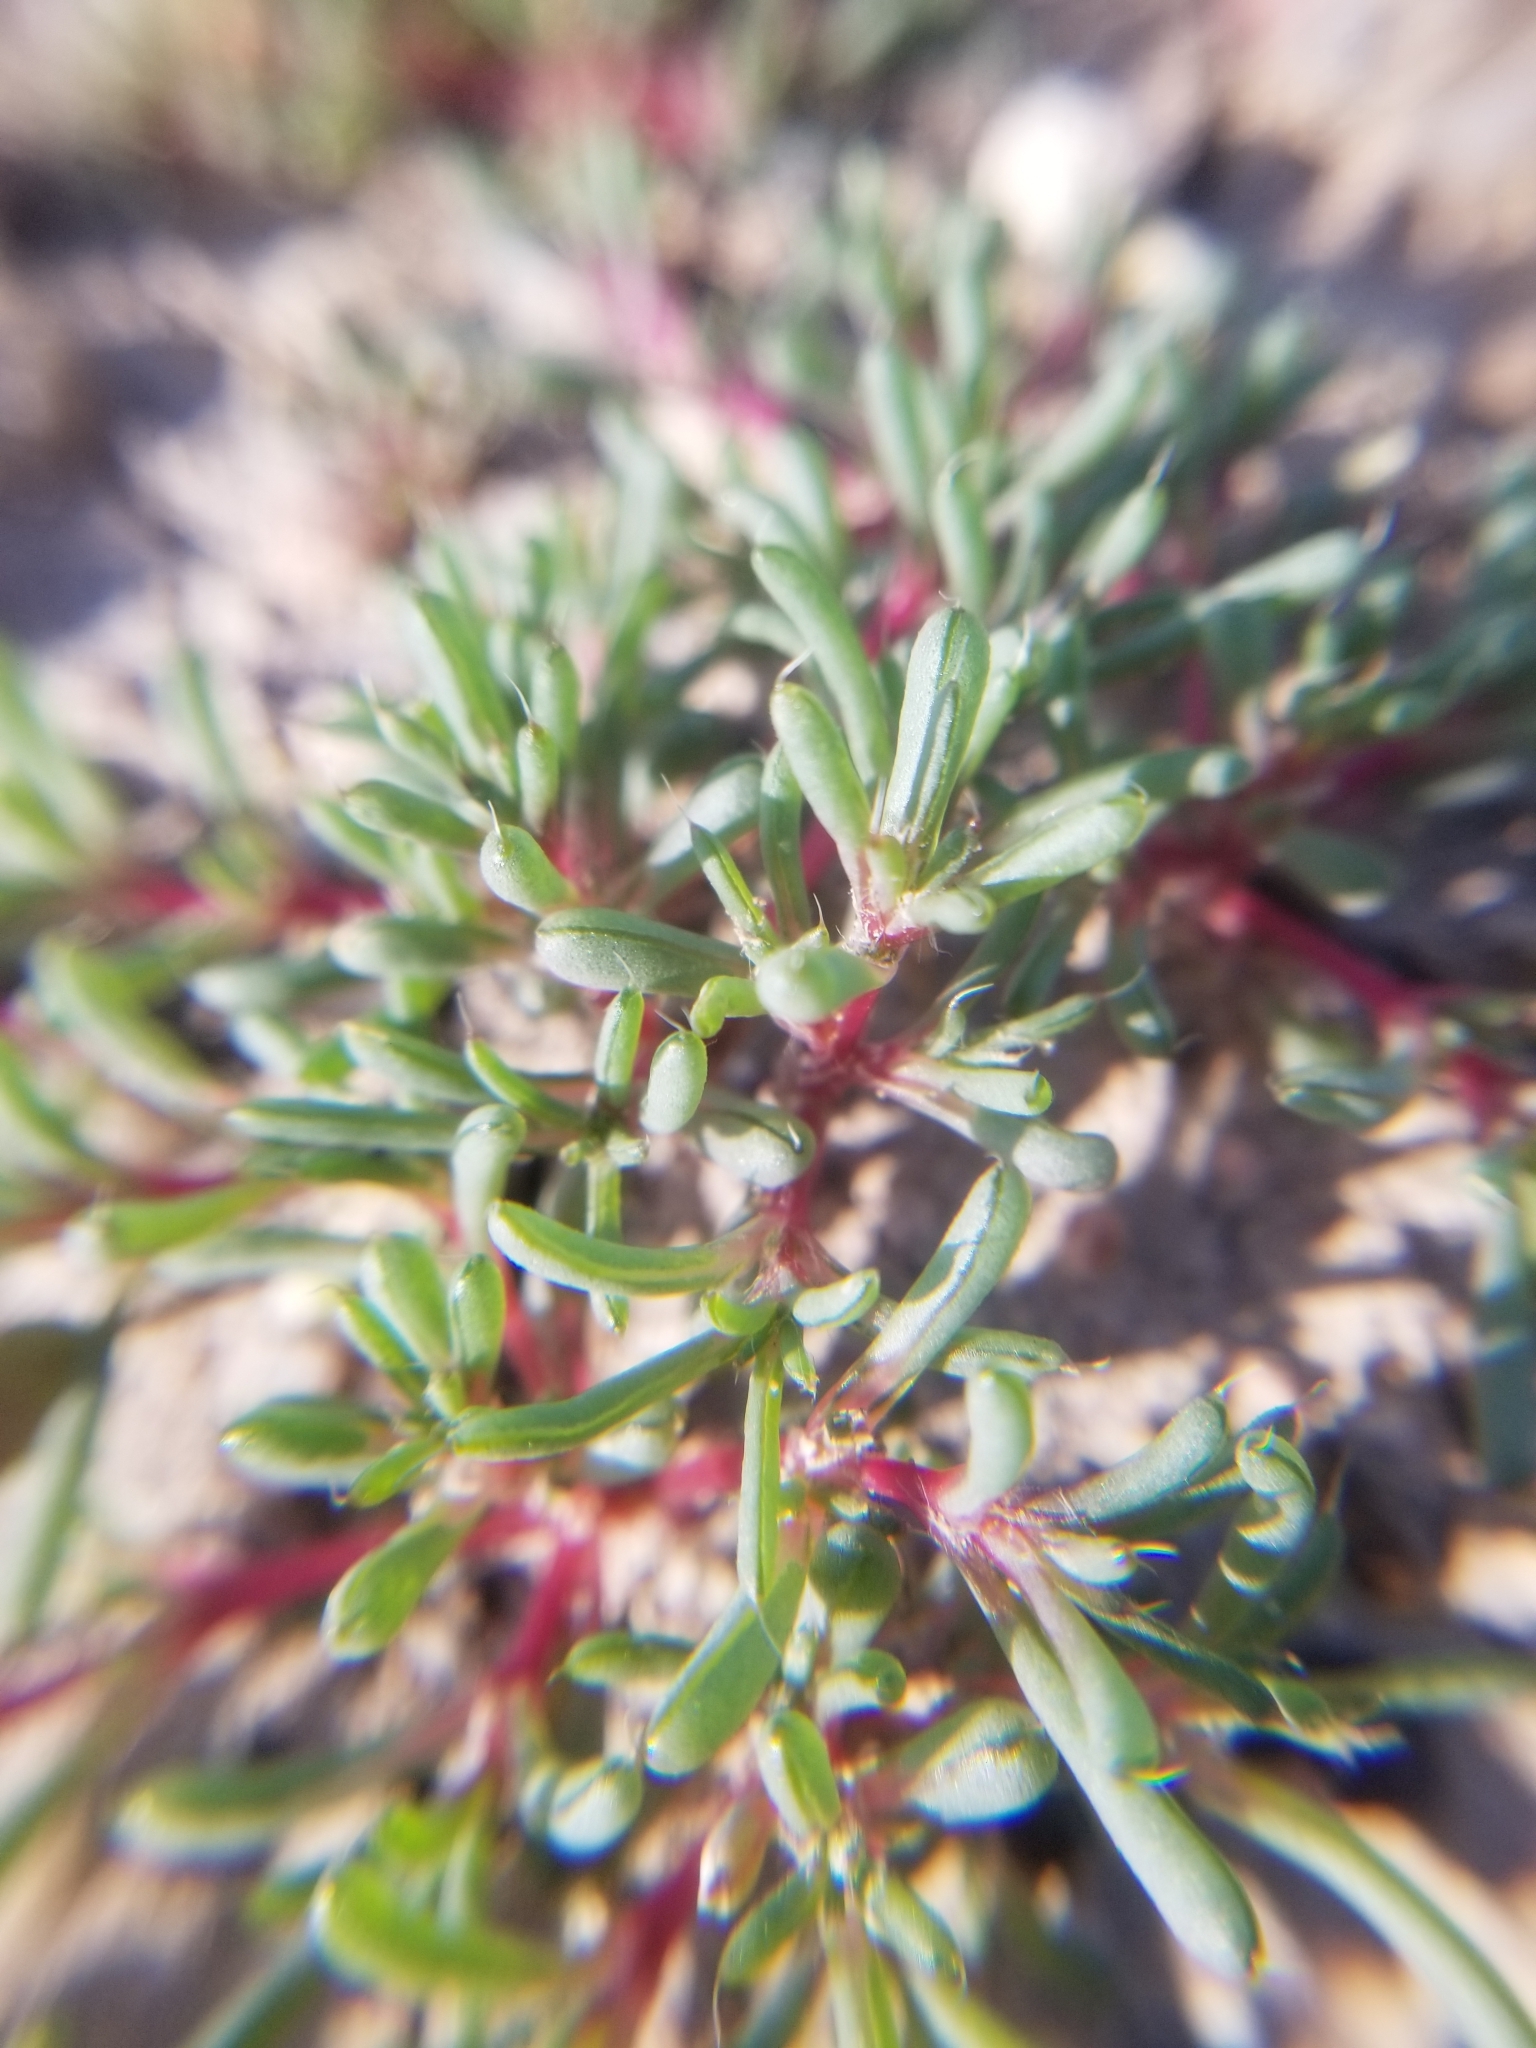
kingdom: Plantae
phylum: Tracheophyta
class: Magnoliopsida
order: Caryophyllales
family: Amaranthaceae
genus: Halogeton
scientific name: Halogeton glomeratus
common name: Saltlover
